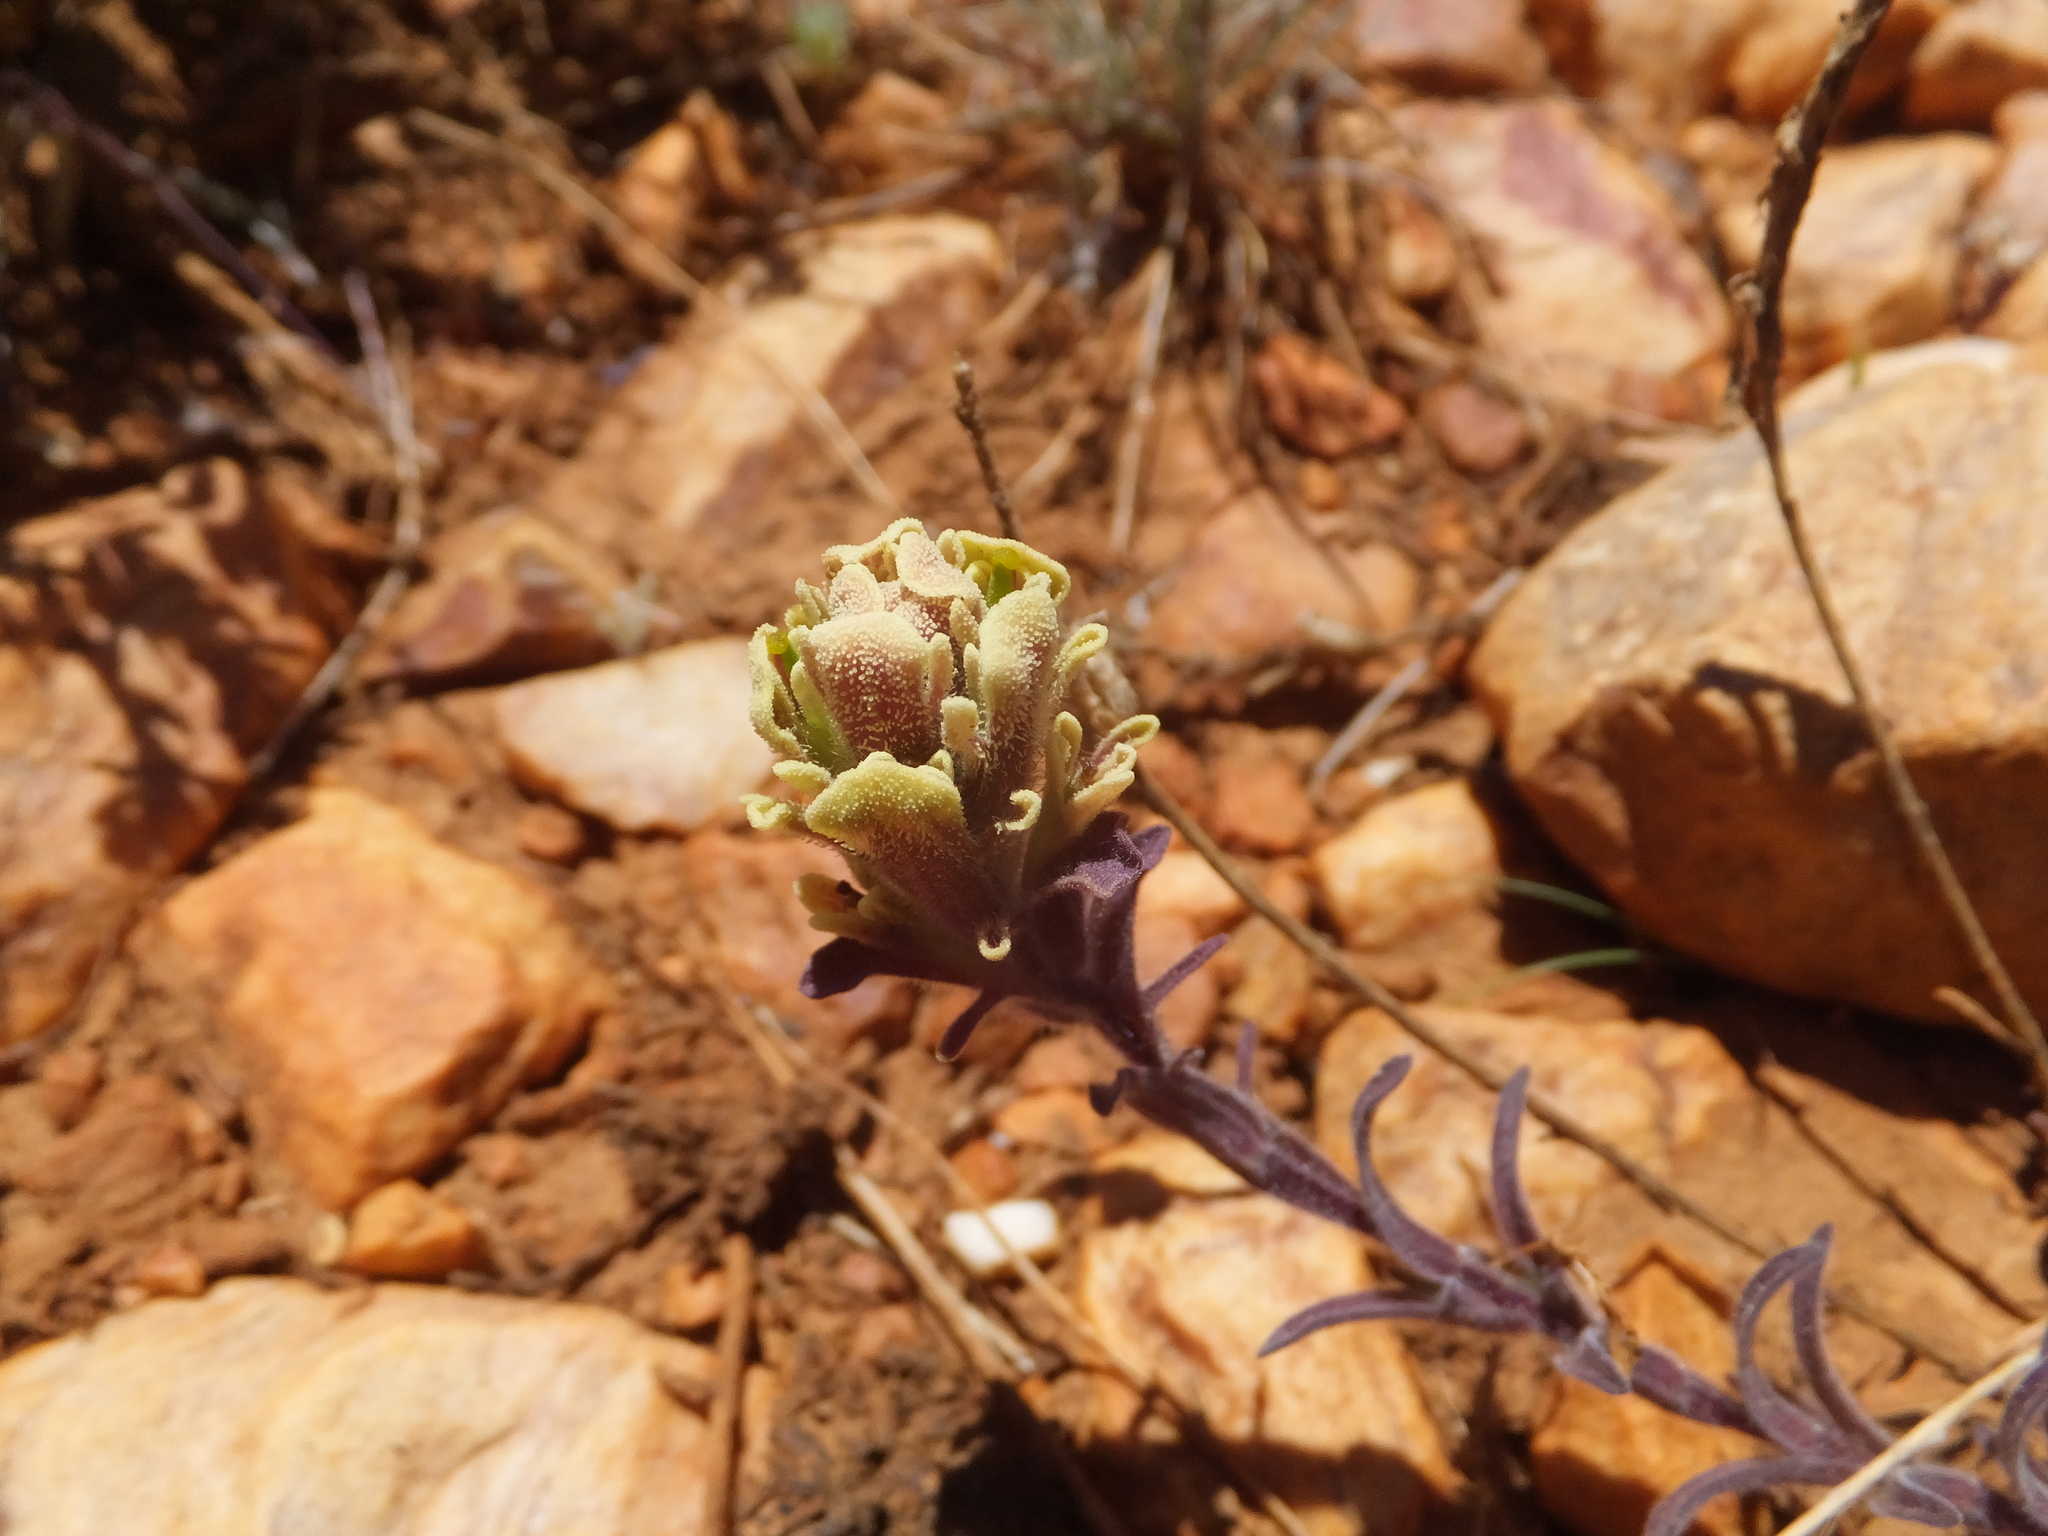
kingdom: Plantae
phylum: Tracheophyta
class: Magnoliopsida
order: Lamiales
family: Orobanchaceae
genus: Castilleja
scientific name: Castilleja cinerea
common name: Ash-gray indian paintbrush
